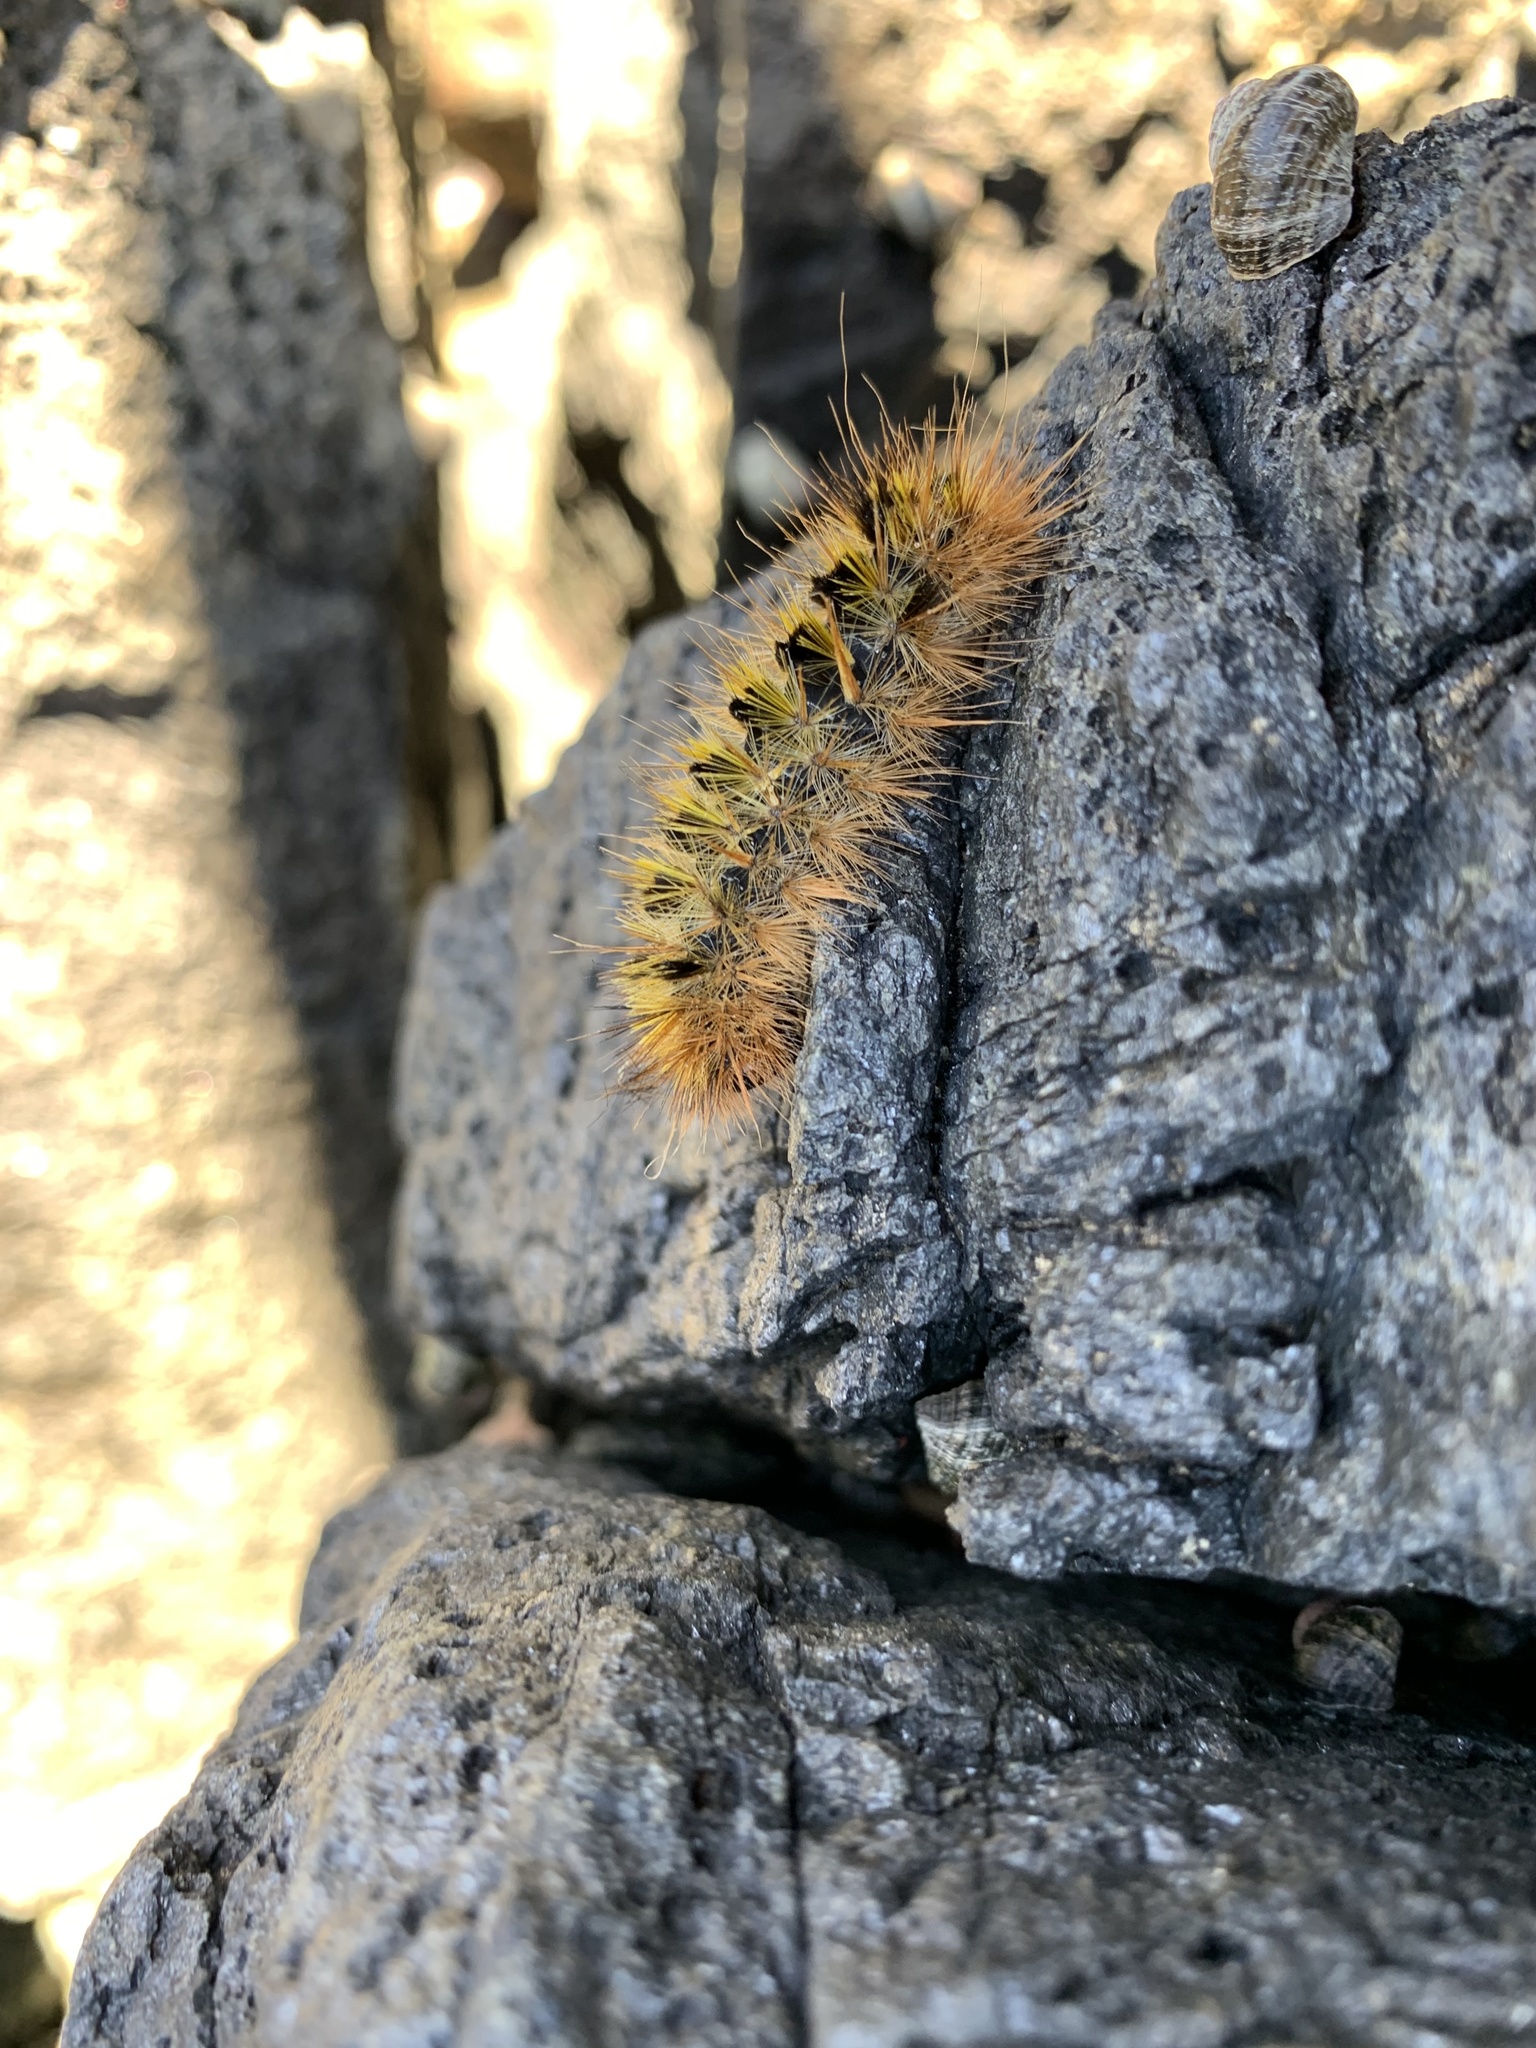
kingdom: Animalia
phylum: Arthropoda
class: Insecta
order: Lepidoptera
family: Erebidae
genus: Lophocampa
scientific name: Lophocampa argentata
